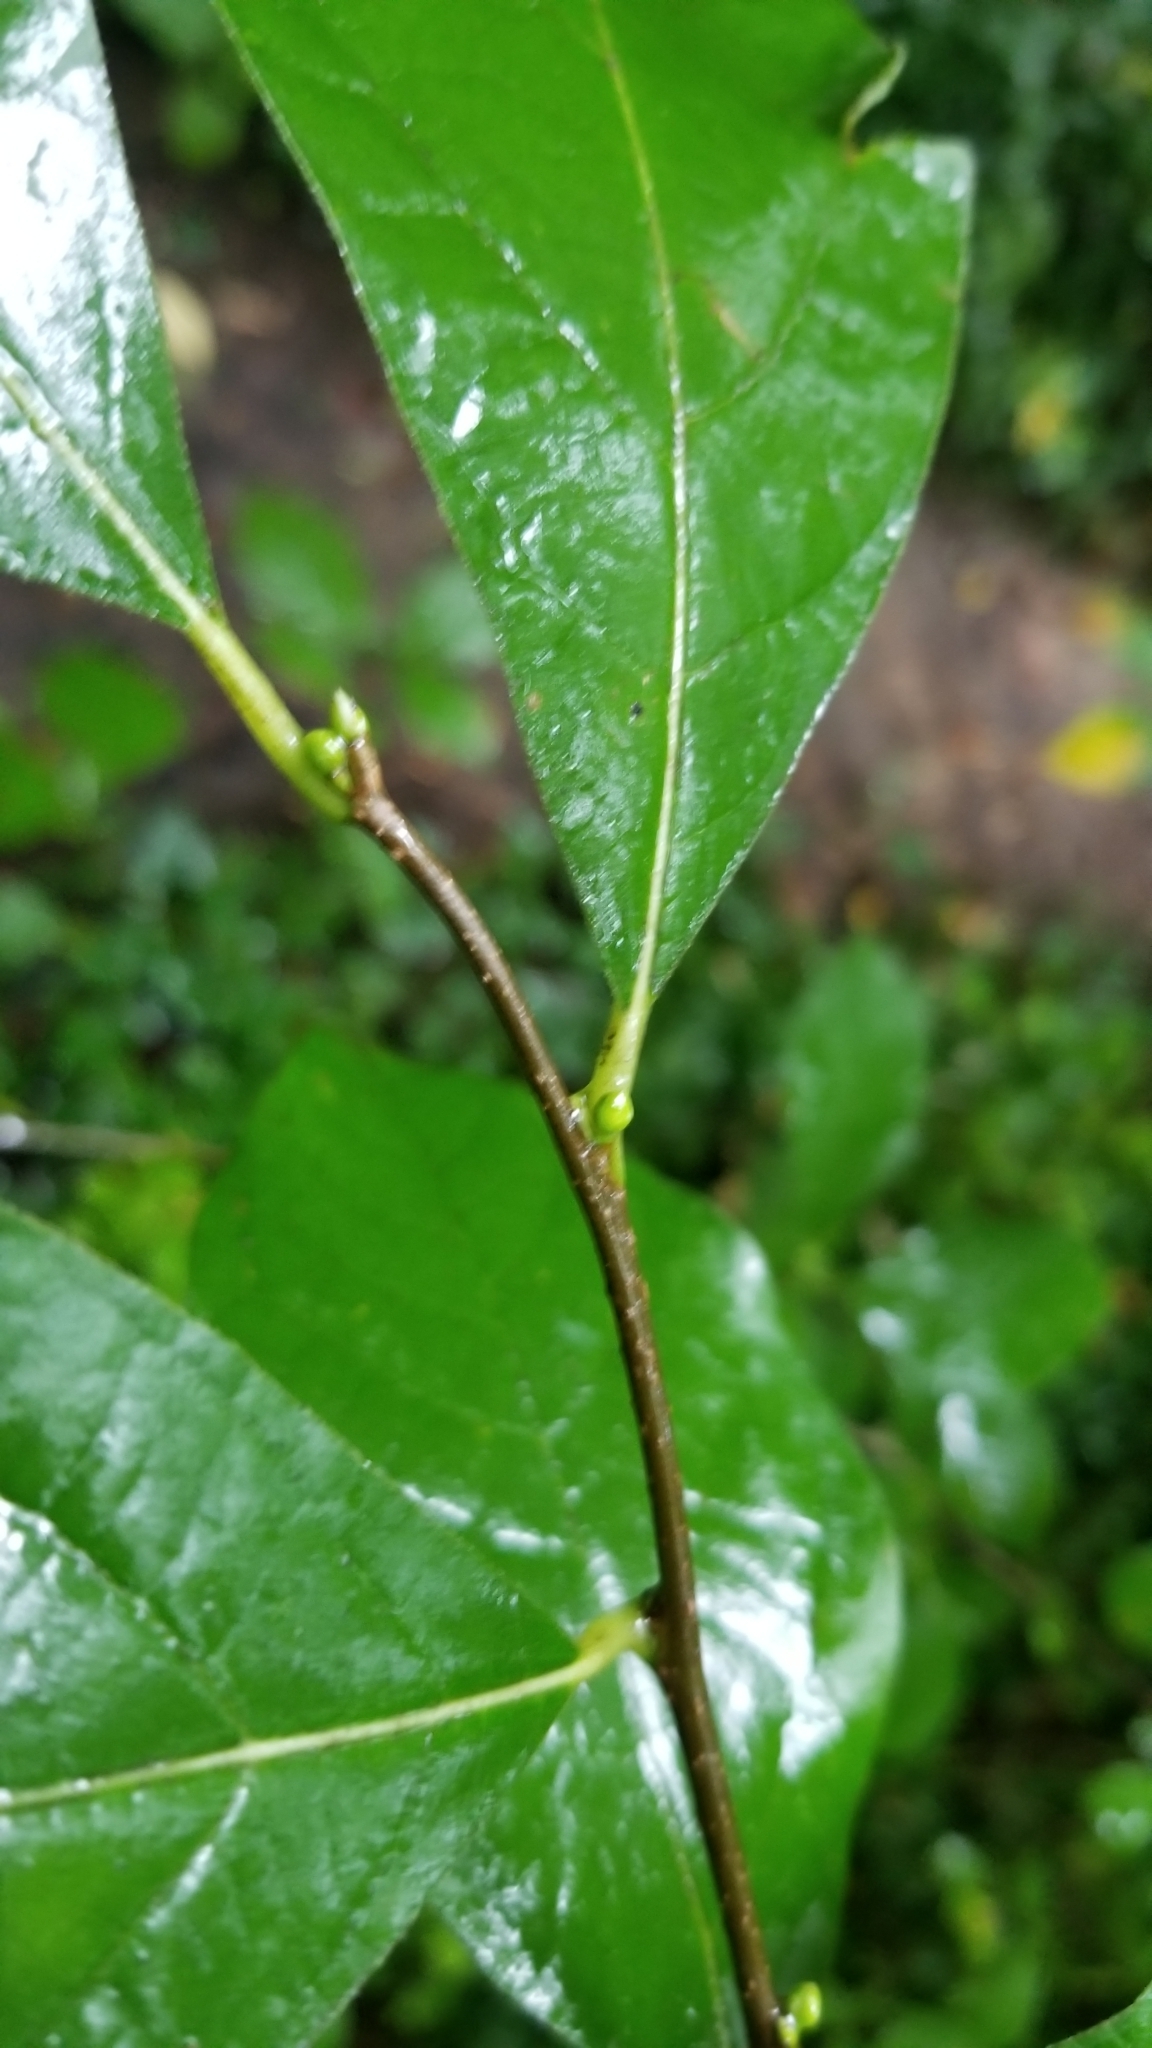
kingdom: Plantae
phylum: Tracheophyta
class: Magnoliopsida
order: Laurales
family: Lauraceae
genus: Lindera
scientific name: Lindera benzoin
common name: Spicebush
